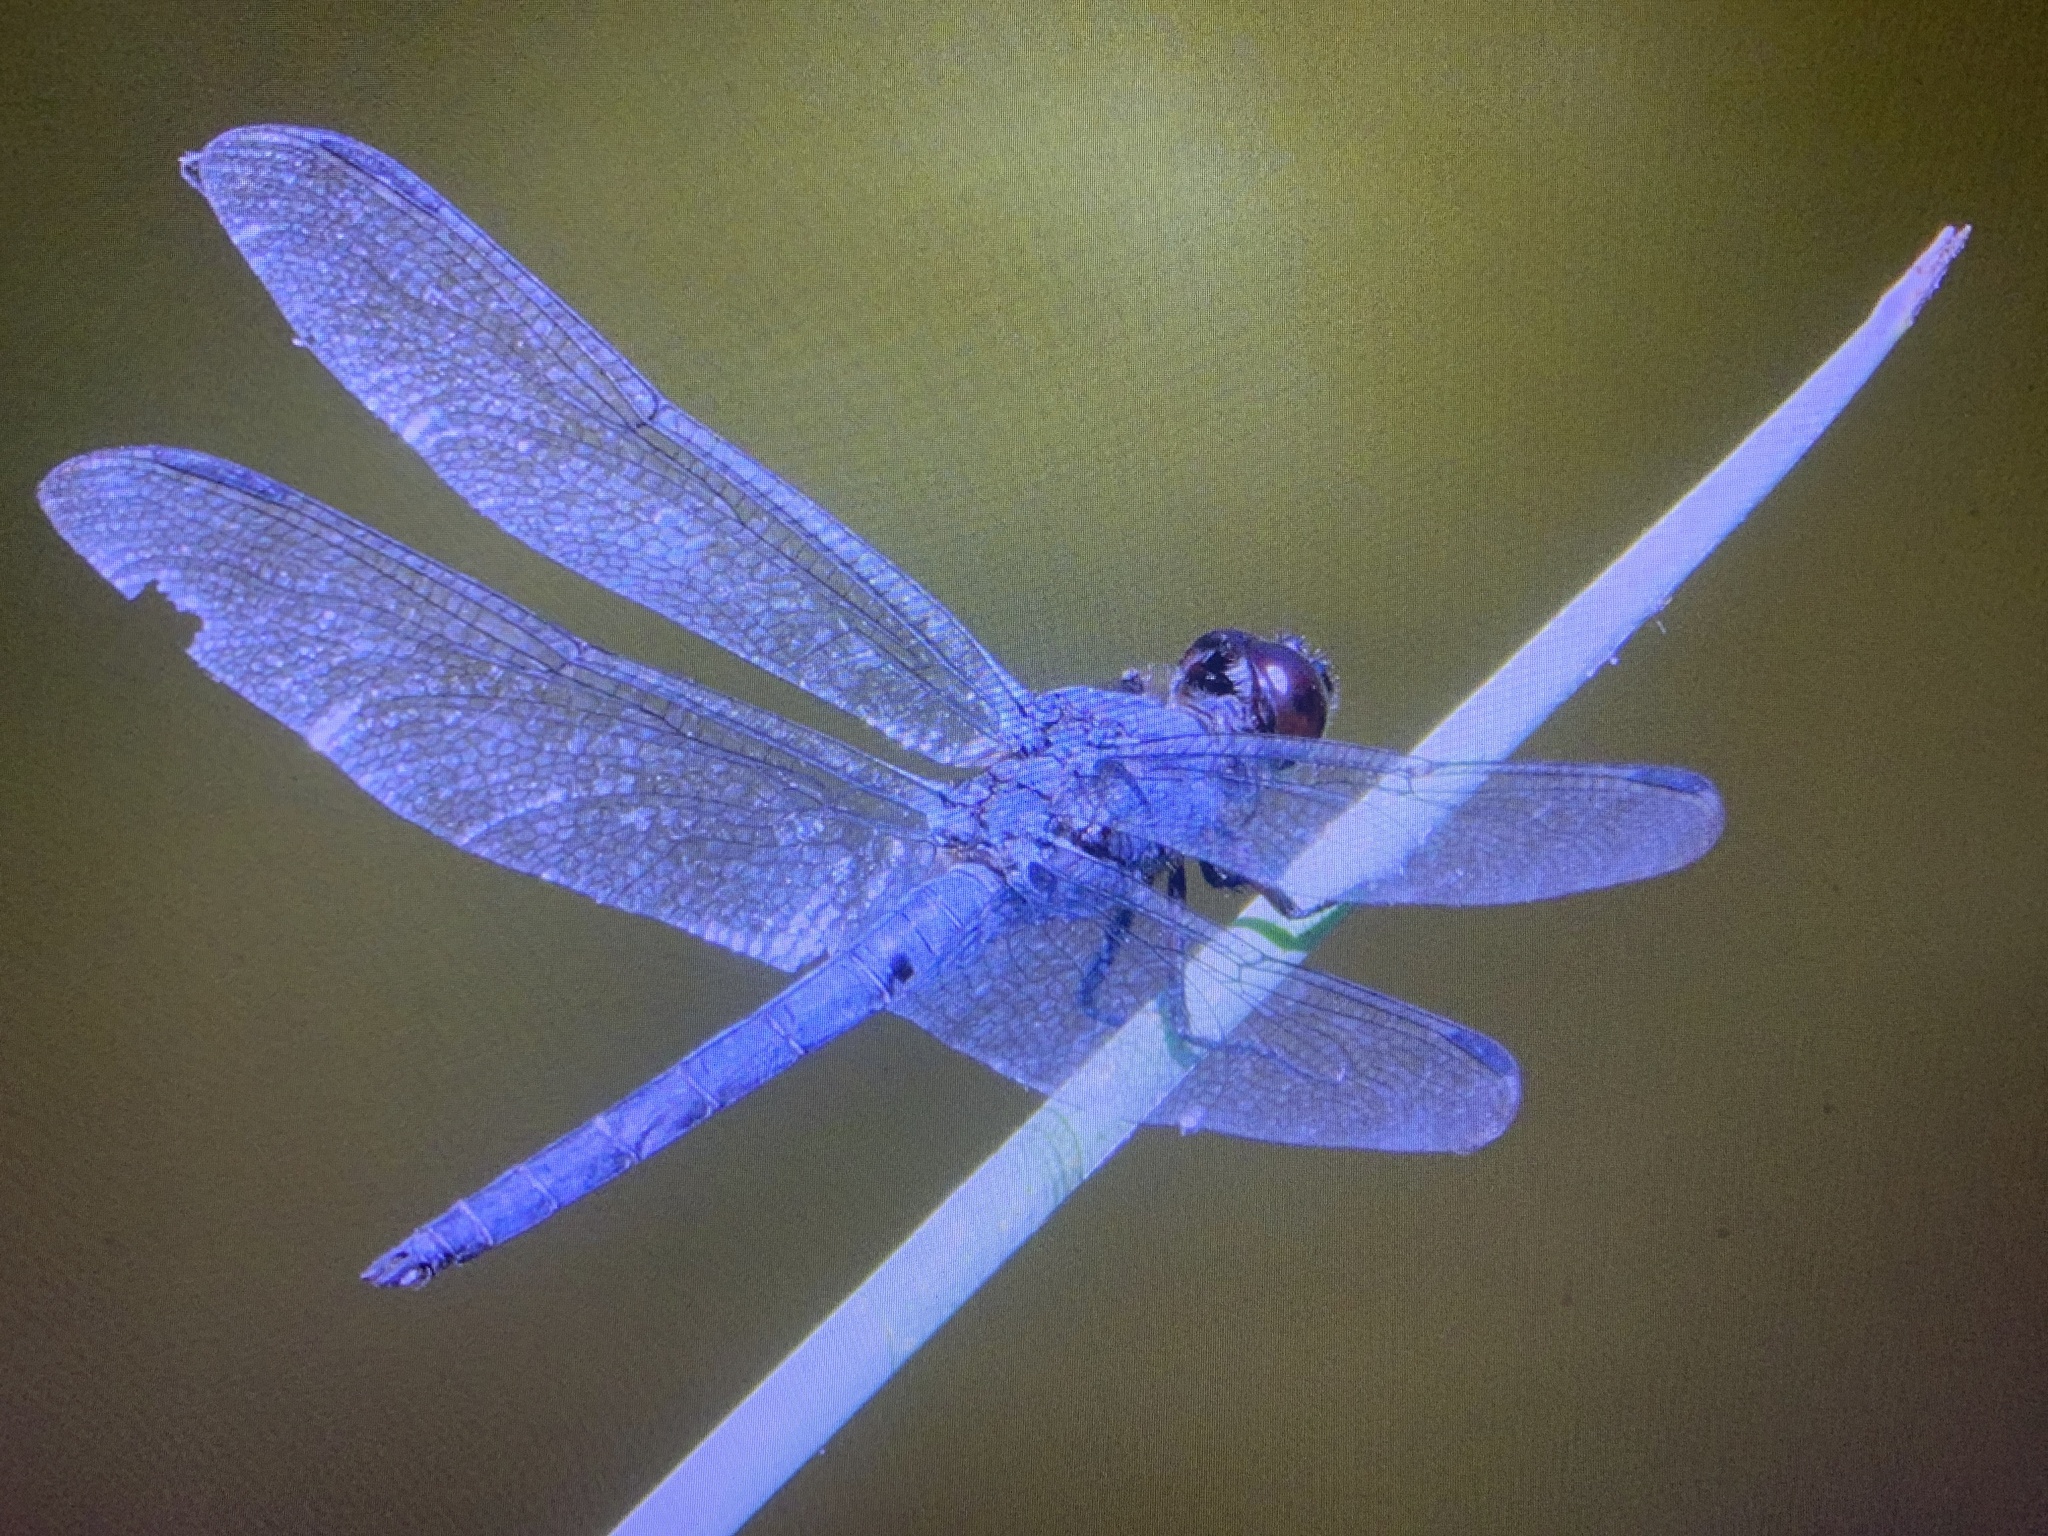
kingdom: Animalia
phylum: Arthropoda
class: Insecta
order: Odonata
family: Libellulidae
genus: Libellula
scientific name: Libellula incesta
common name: Slaty skimmer
